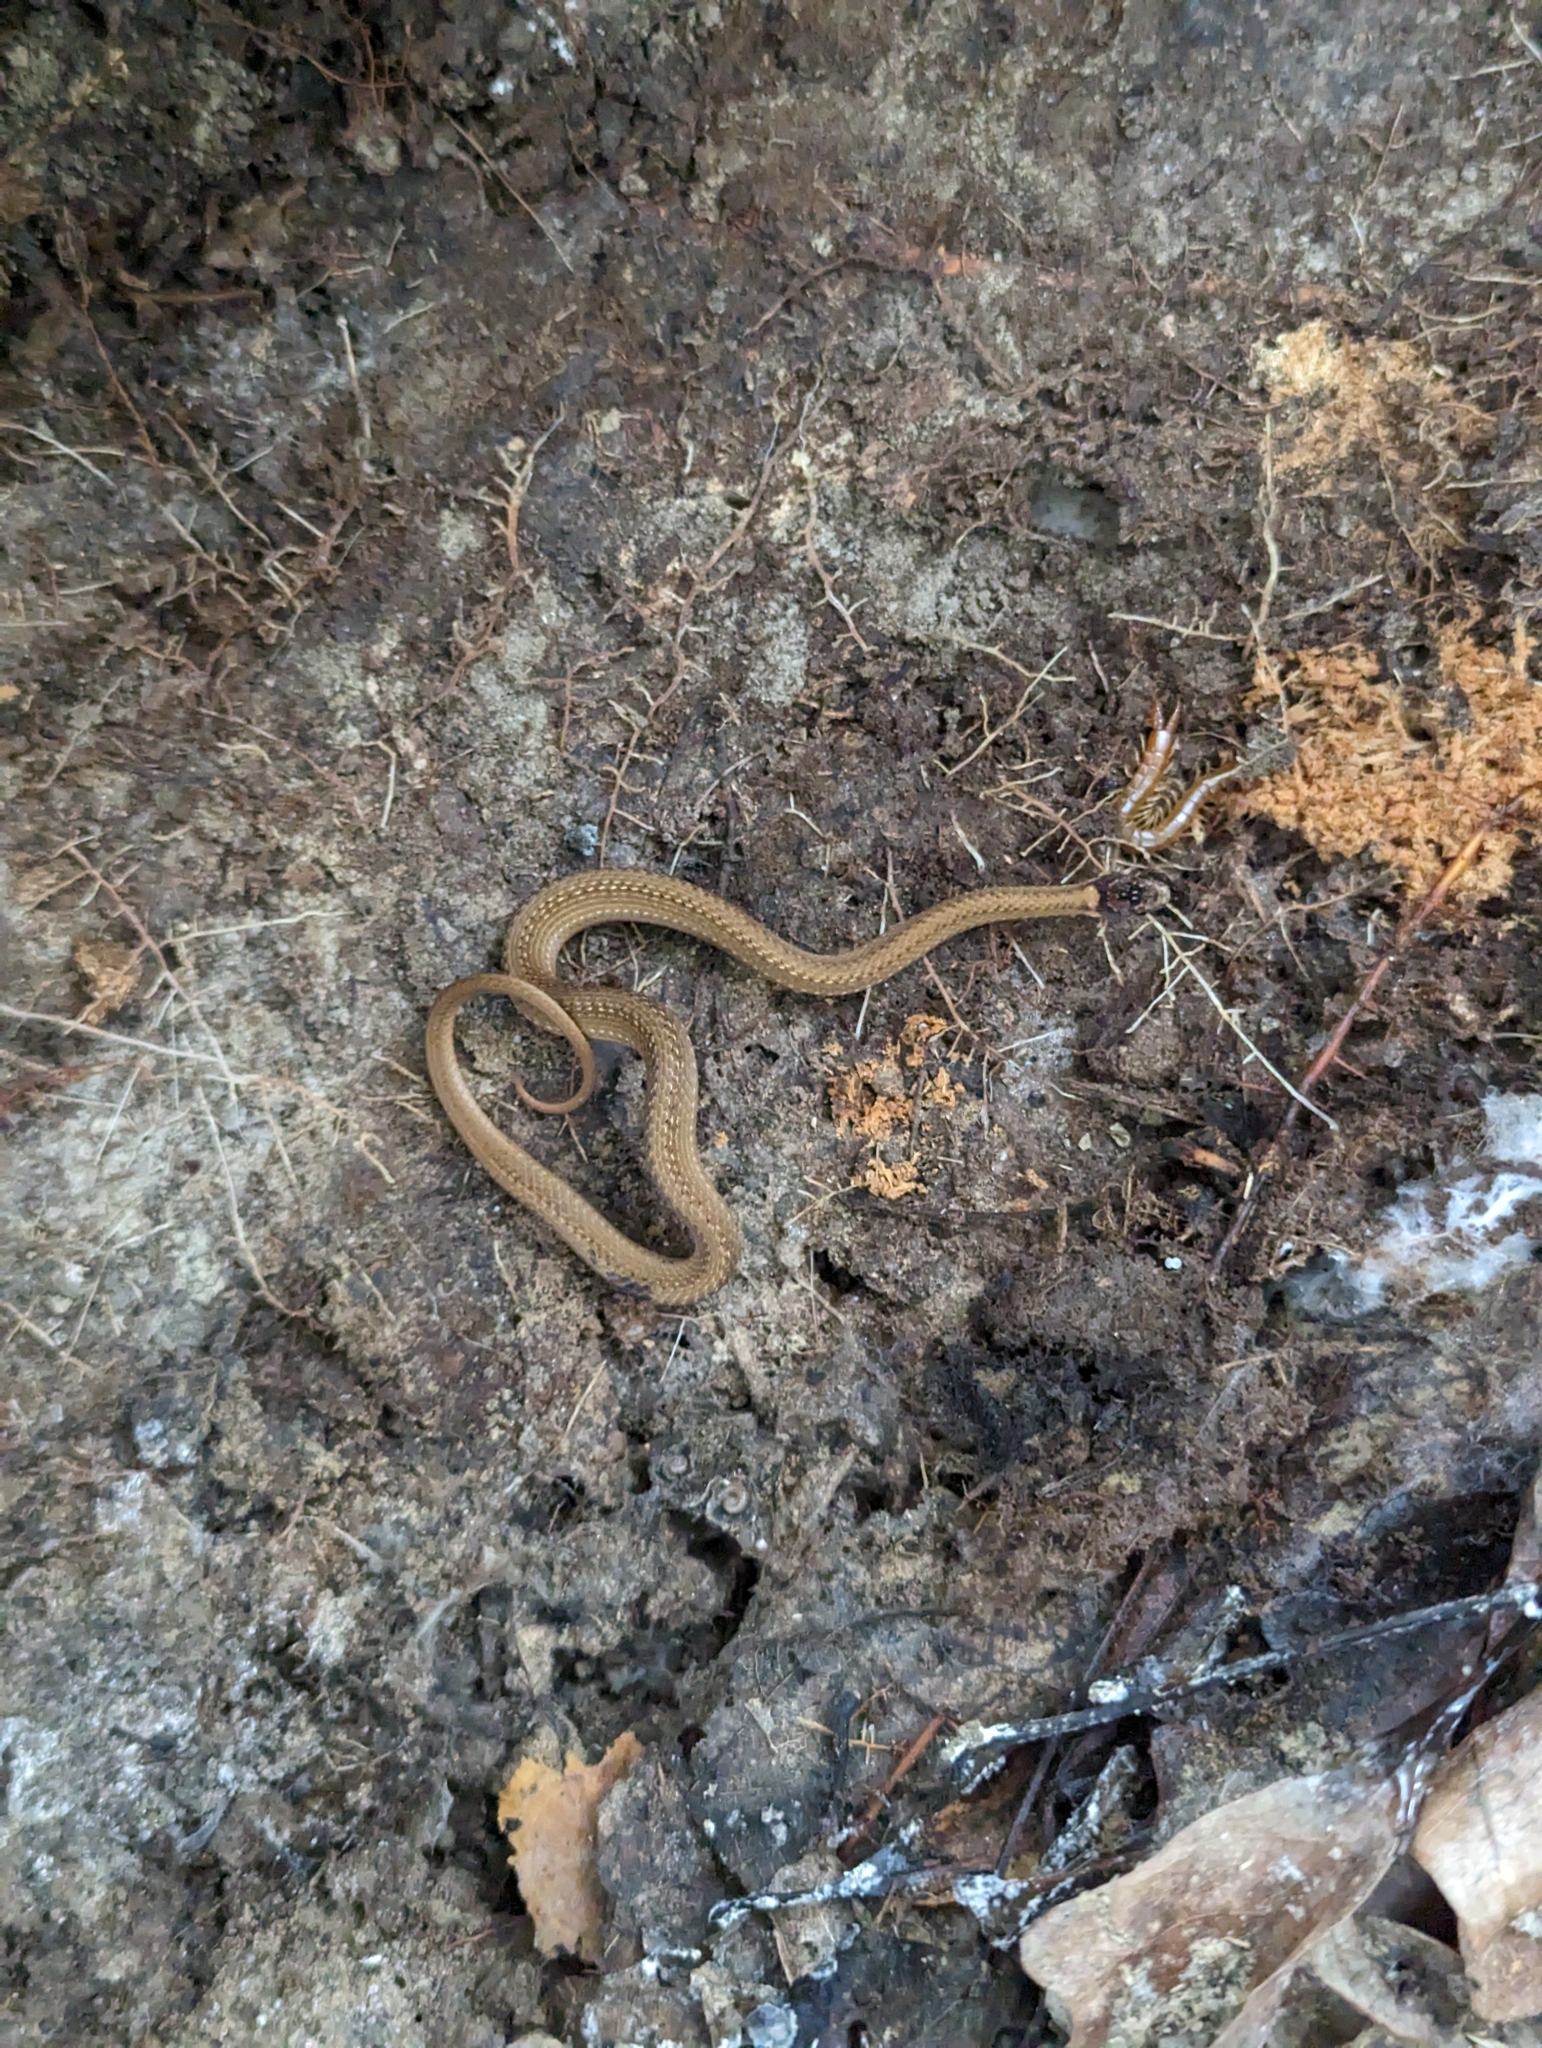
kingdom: Animalia
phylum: Chordata
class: Squamata
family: Colubridae
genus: Storeria
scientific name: Storeria occipitomaculata
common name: Redbelly snake
